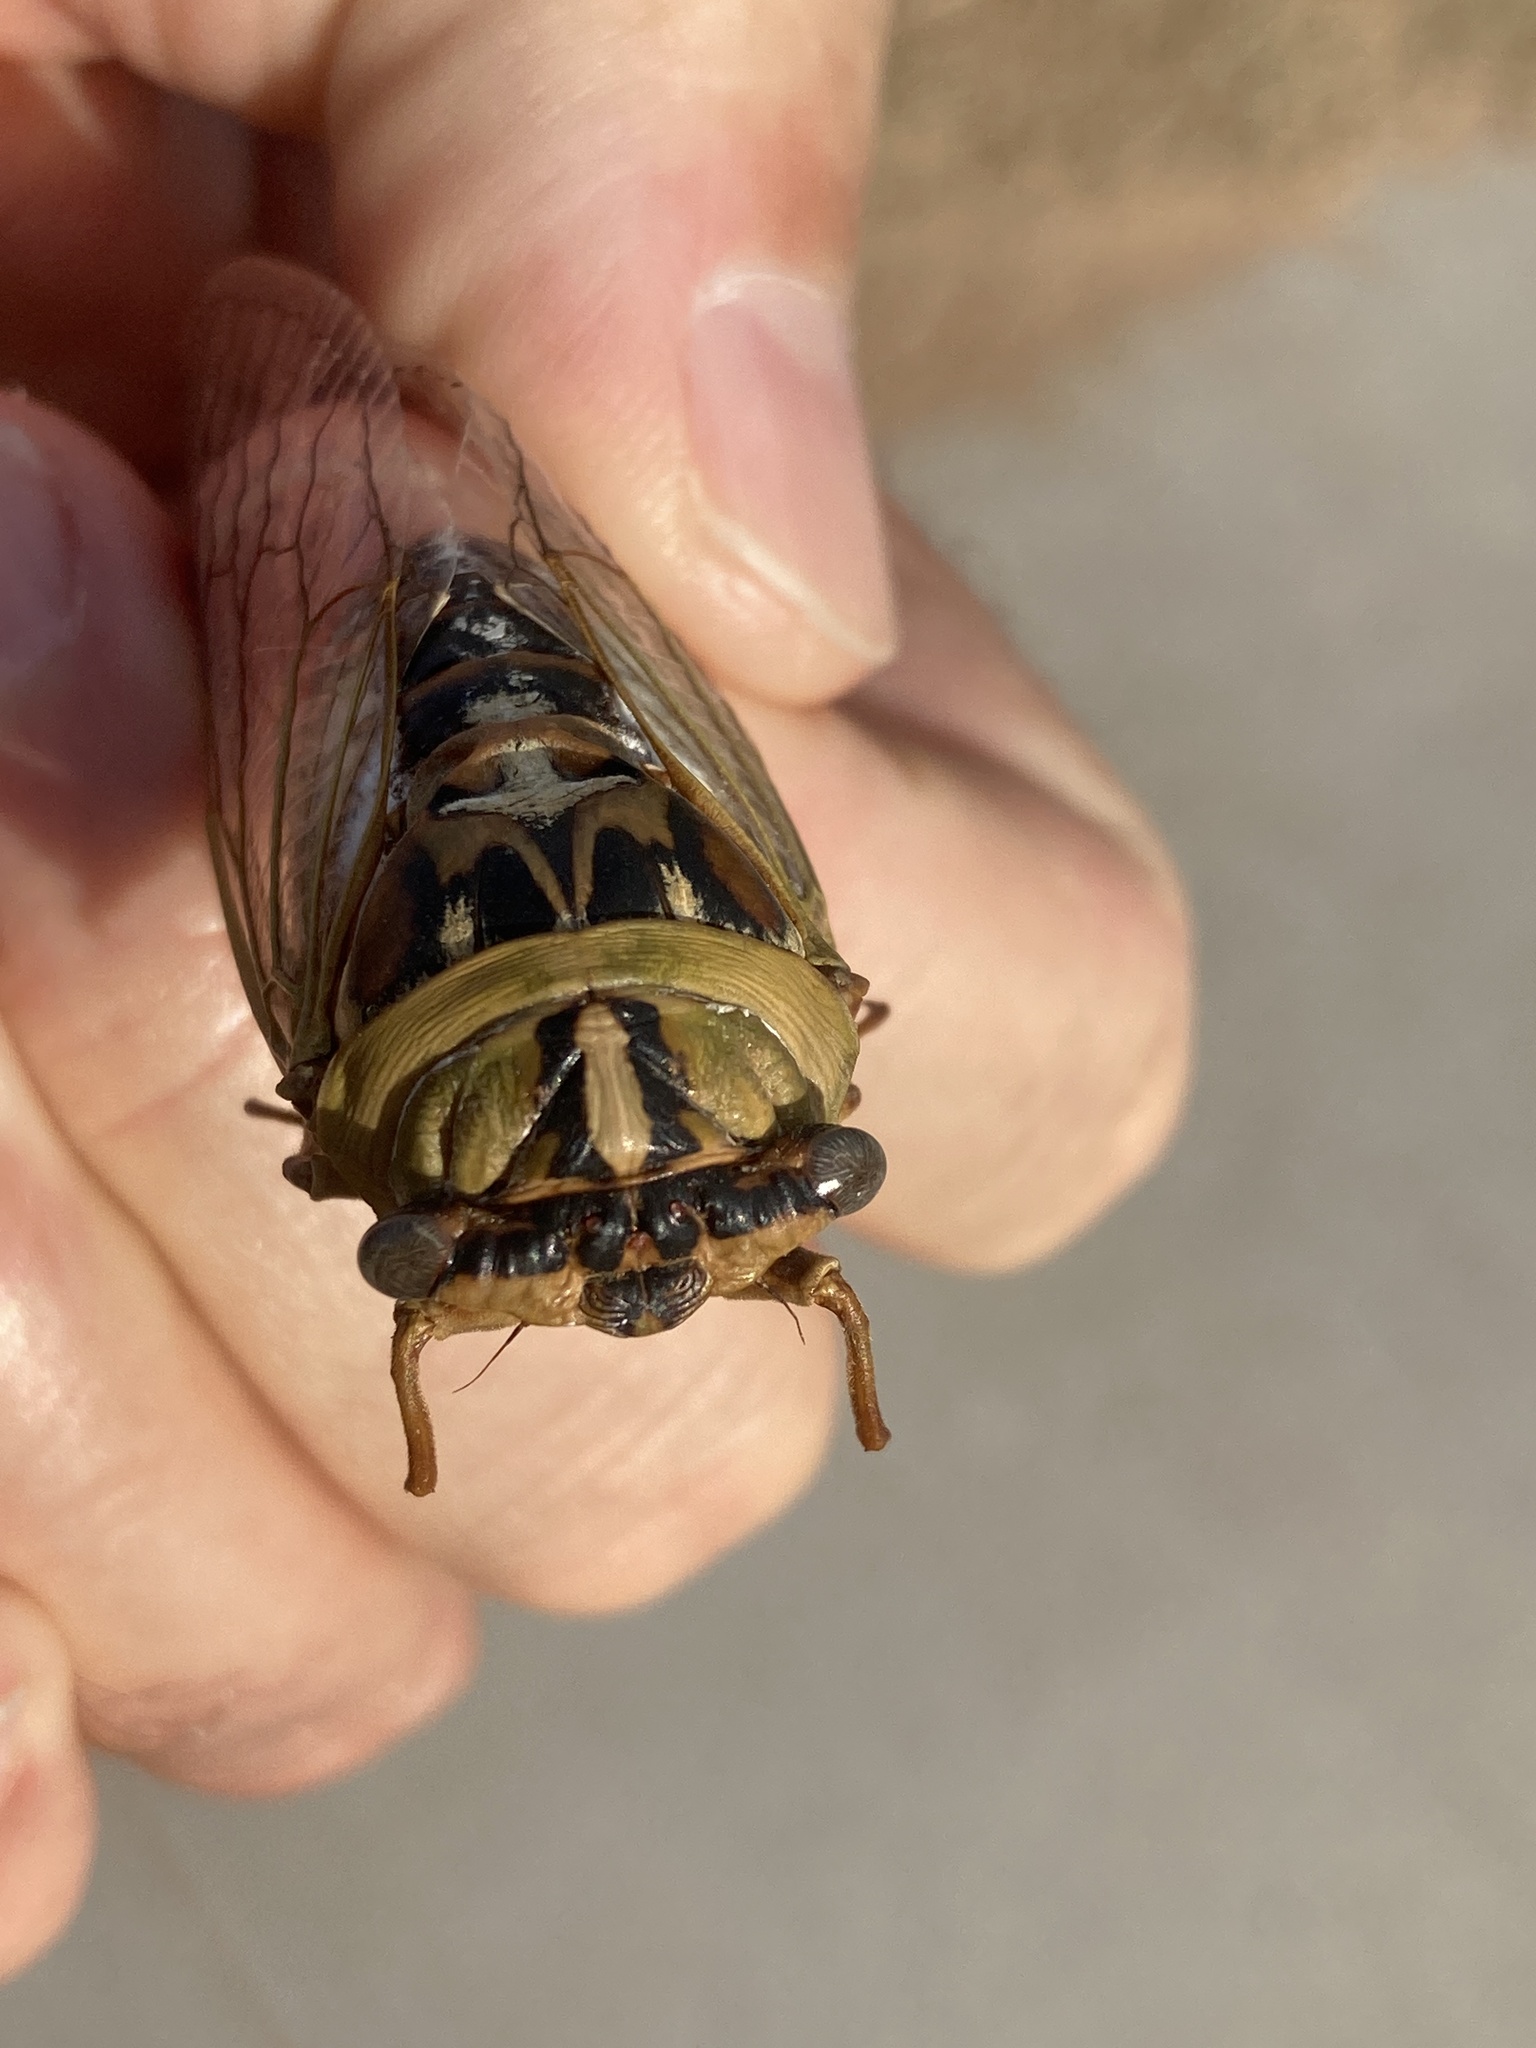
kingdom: Animalia
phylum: Arthropoda
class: Insecta
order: Hemiptera
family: Cicadidae
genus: Megatibicen
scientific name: Megatibicen dealbatus
